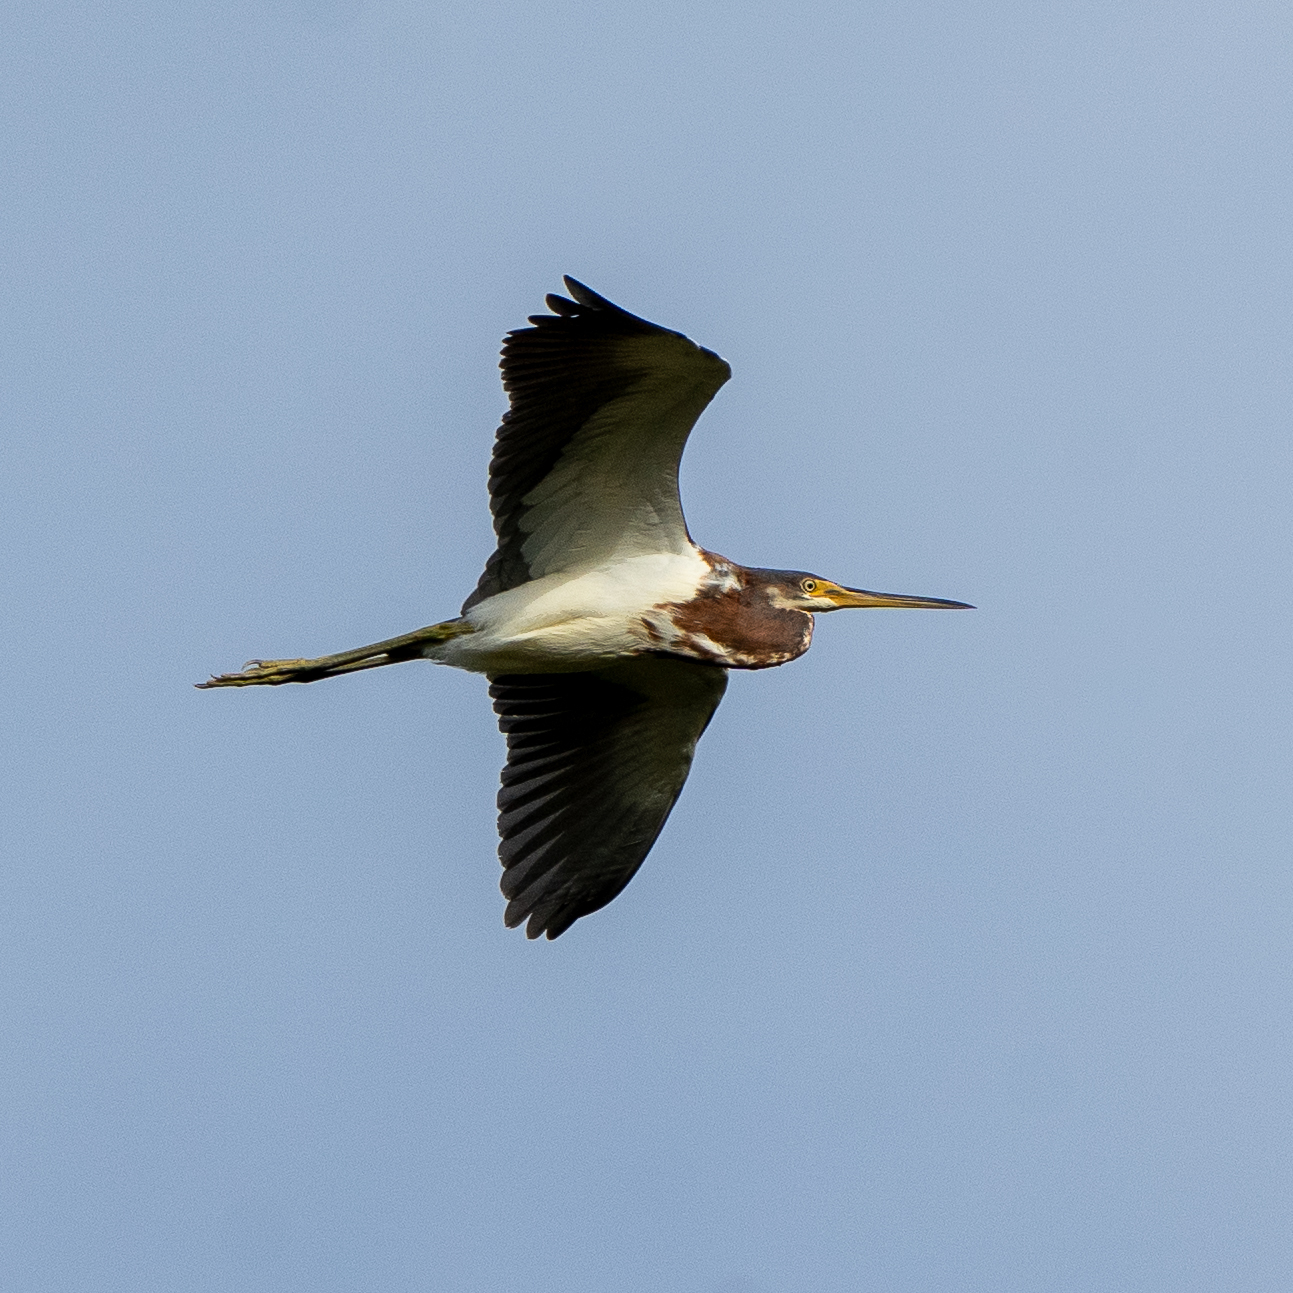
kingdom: Animalia
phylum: Chordata
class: Aves
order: Pelecaniformes
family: Ardeidae
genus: Egretta
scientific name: Egretta tricolor
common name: Tricolored heron
